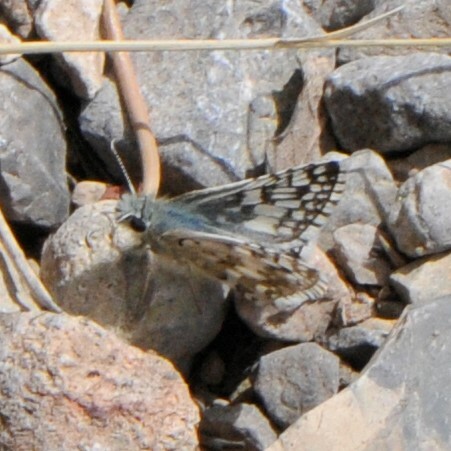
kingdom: Animalia
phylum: Arthropoda
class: Insecta
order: Lepidoptera
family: Hesperiidae
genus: Burnsius
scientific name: Burnsius
